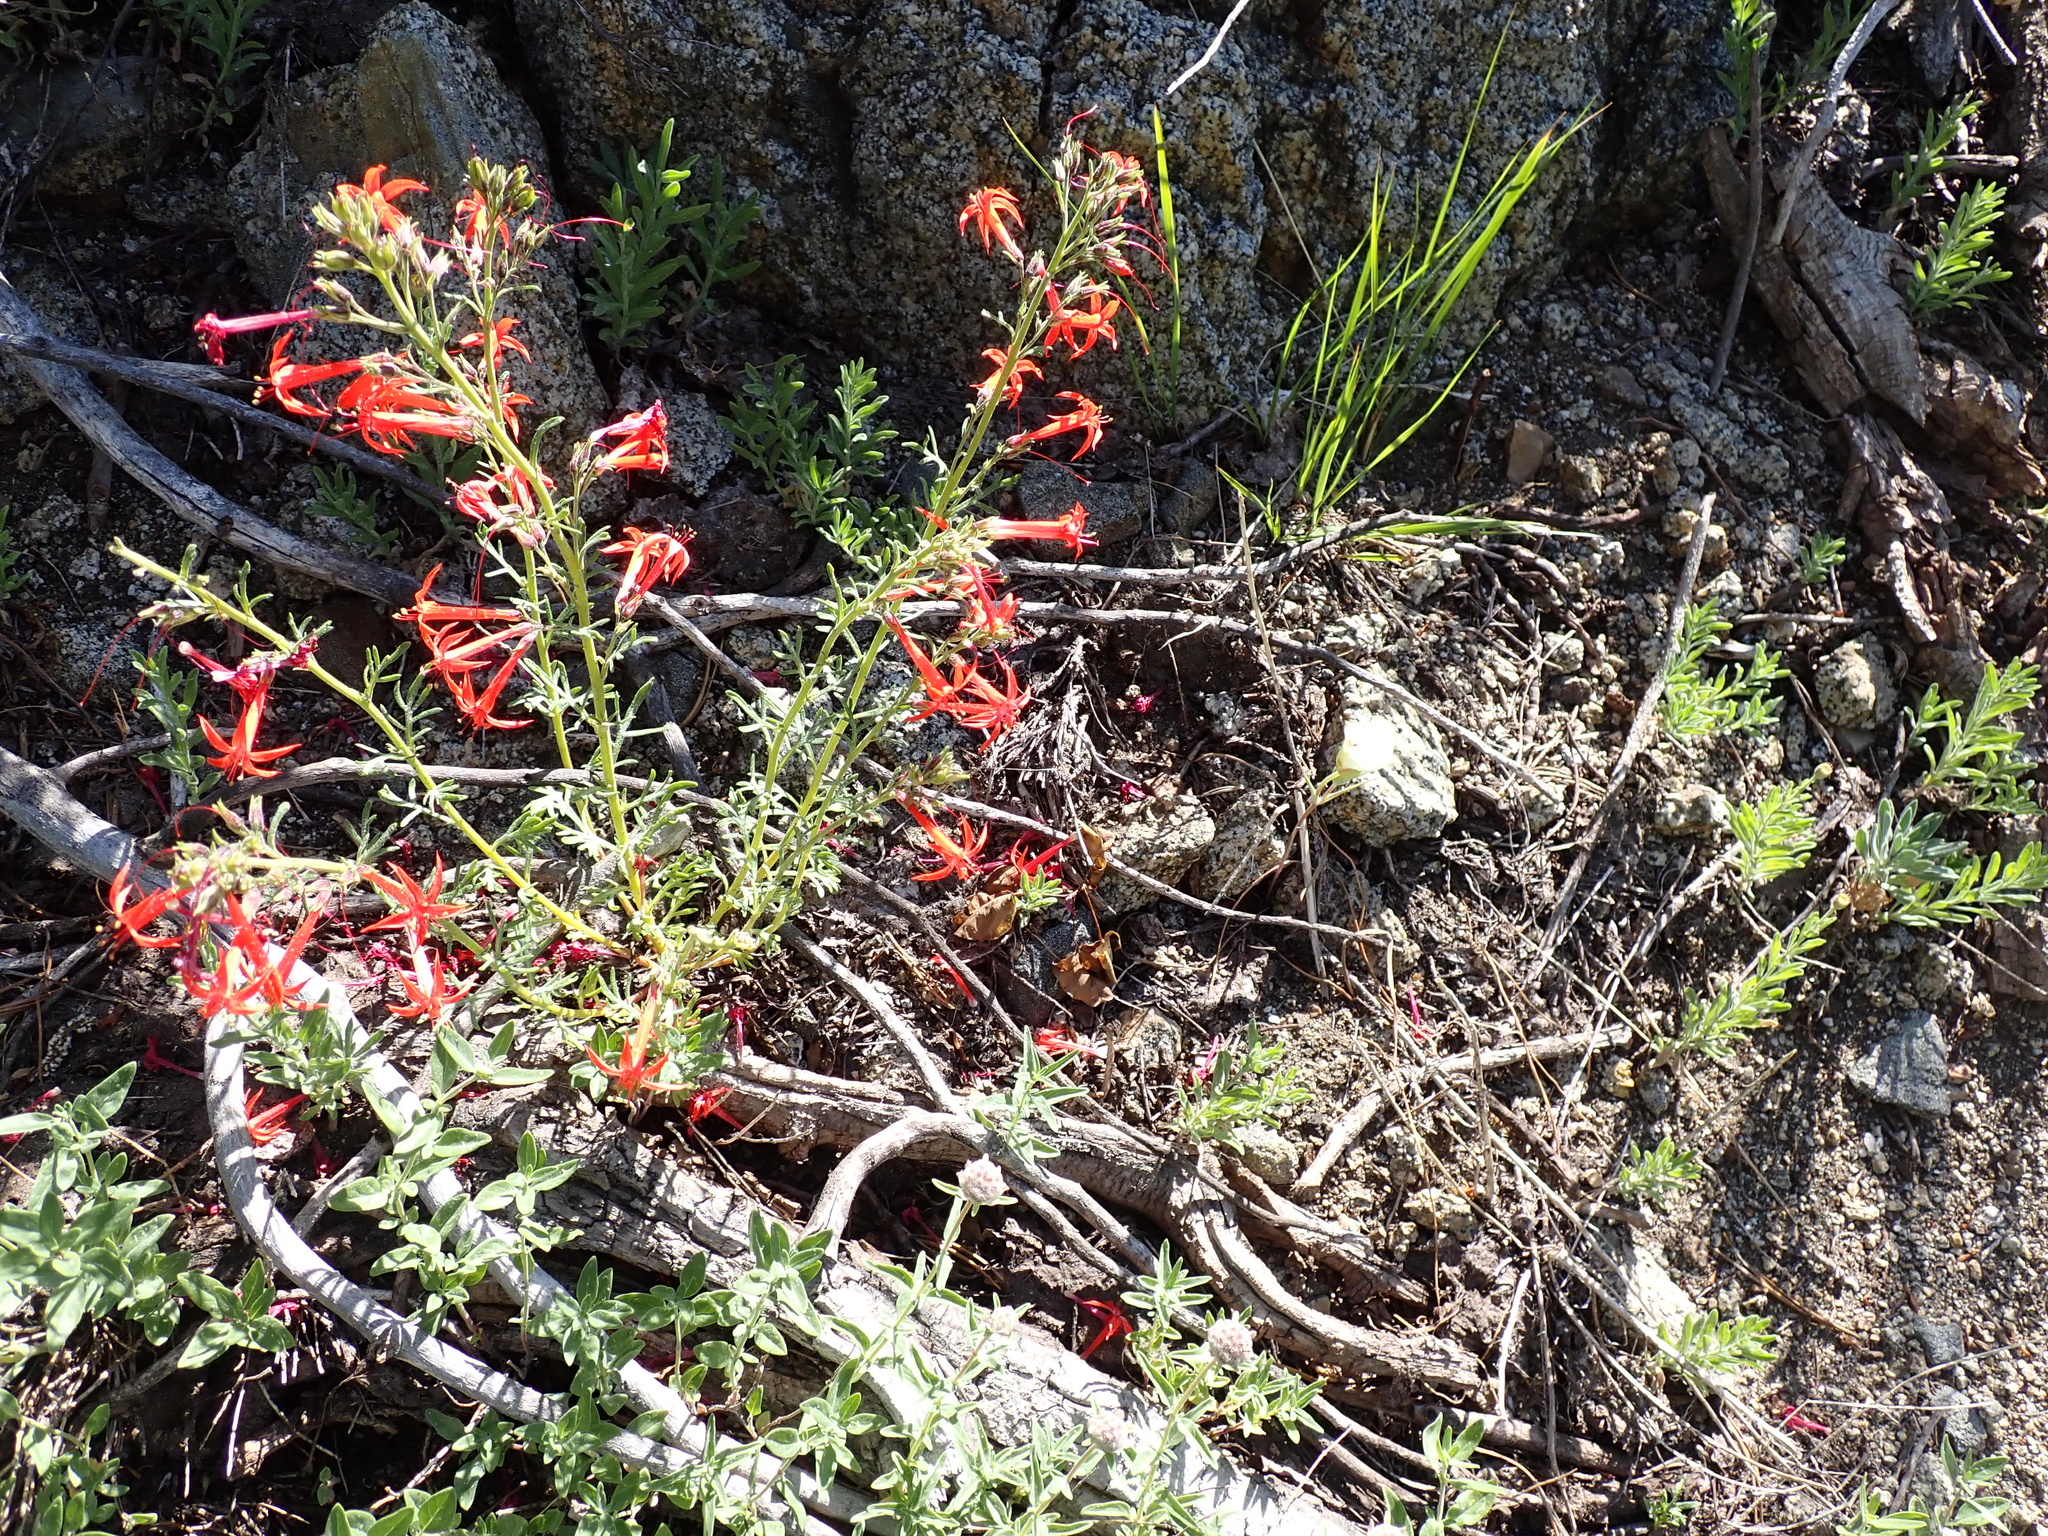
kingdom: Plantae
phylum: Tracheophyta
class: Magnoliopsida
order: Ericales
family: Polemoniaceae
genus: Ipomopsis
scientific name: Ipomopsis aggregata
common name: Scarlet gilia
